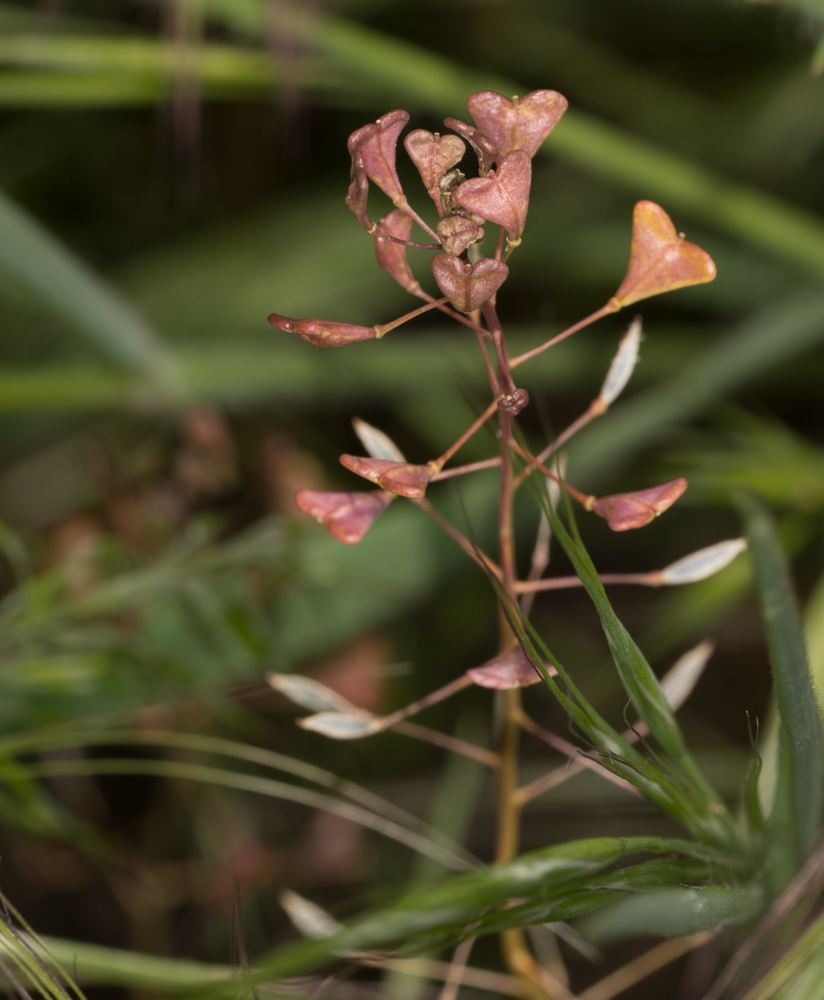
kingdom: Plantae
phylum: Tracheophyta
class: Magnoliopsida
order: Brassicales
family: Brassicaceae
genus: Capsella
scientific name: Capsella bursa-pastoris
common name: Shepherd's purse
